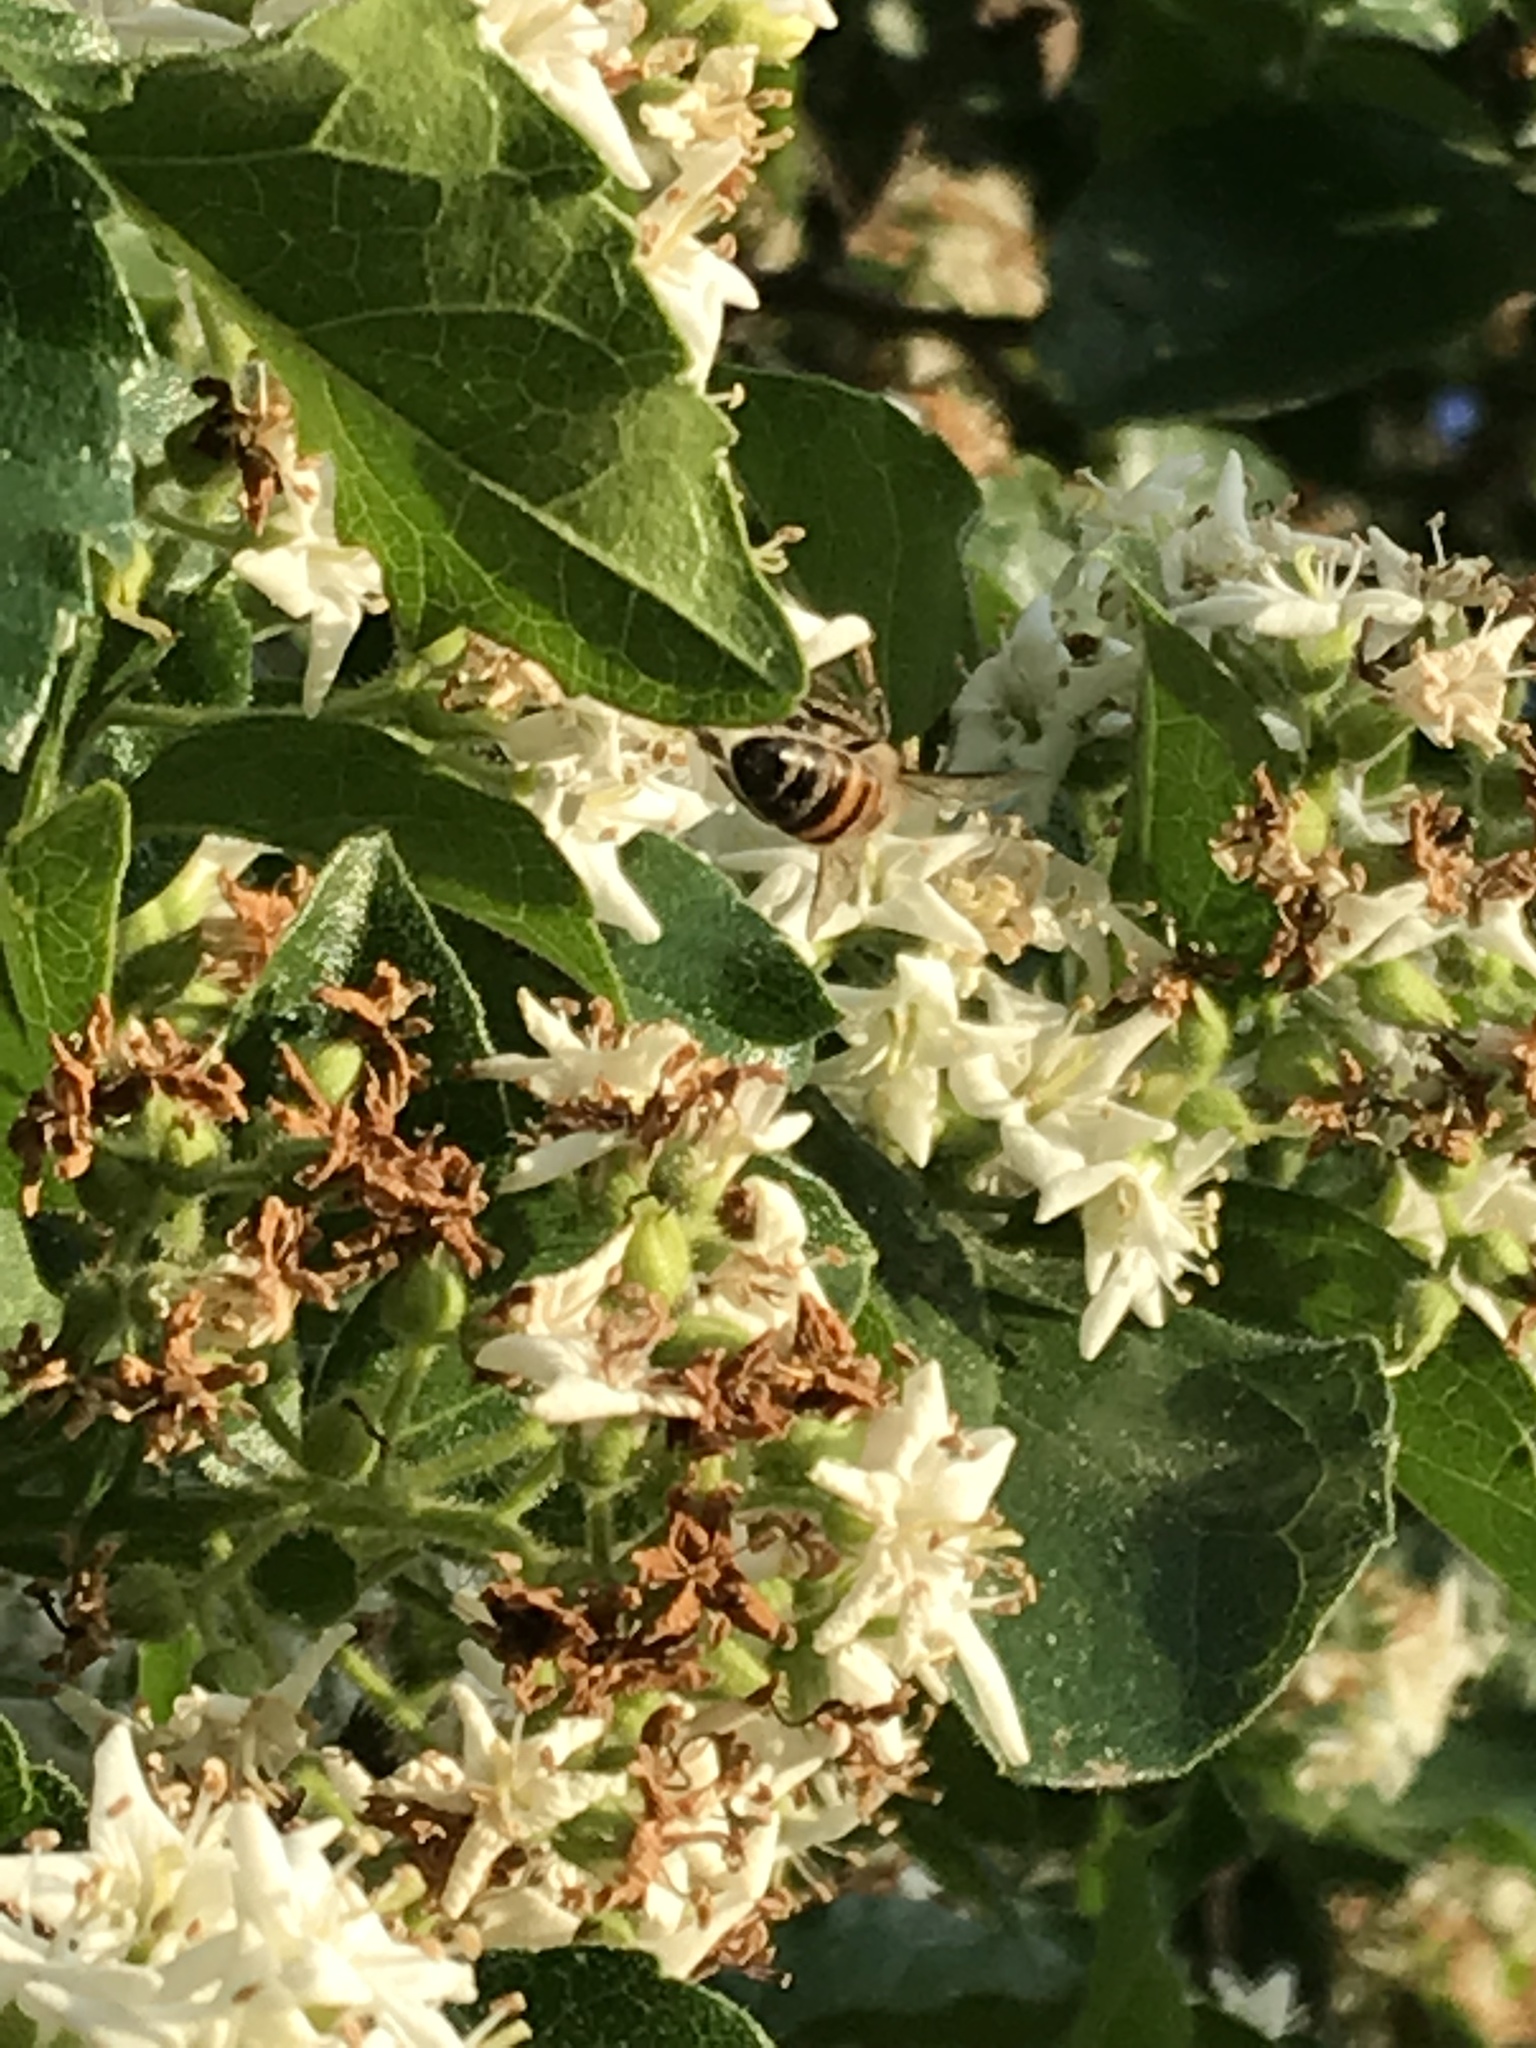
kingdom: Plantae
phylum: Tracheophyta
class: Magnoliopsida
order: Boraginales
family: Ehretiaceae
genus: Ehretia
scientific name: Ehretia anacua
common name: Sugarberry
